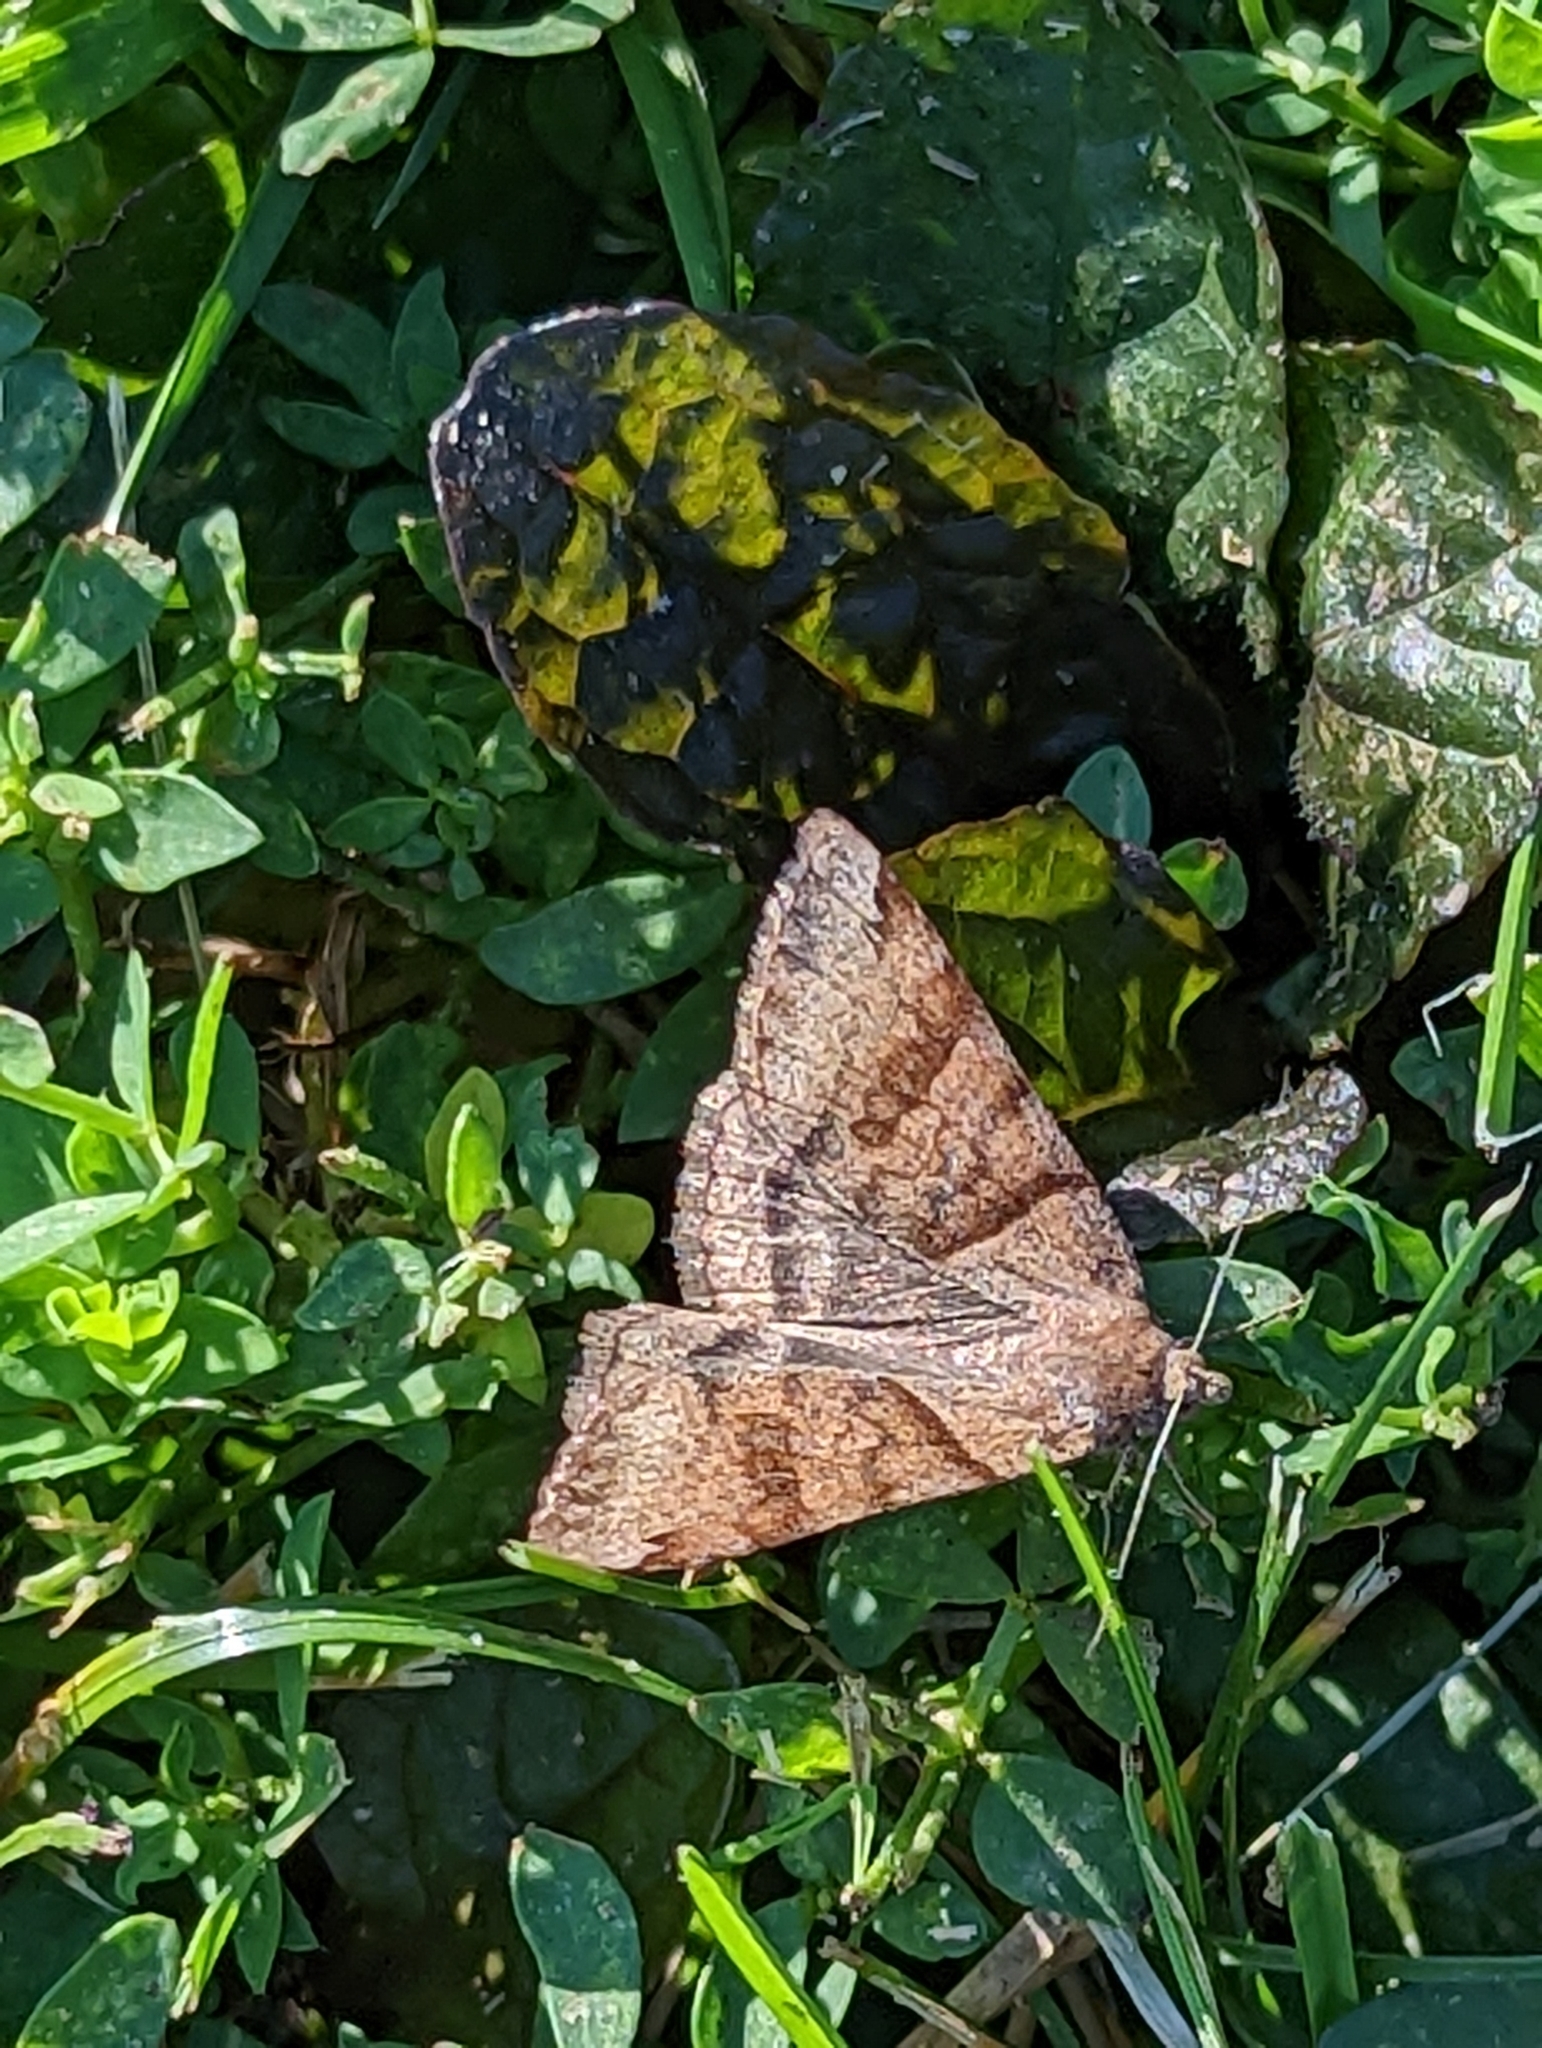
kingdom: Animalia
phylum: Arthropoda
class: Insecta
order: Lepidoptera
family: Erebidae
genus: Caenurgina
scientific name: Caenurgina crassiuscula
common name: Double-barred
